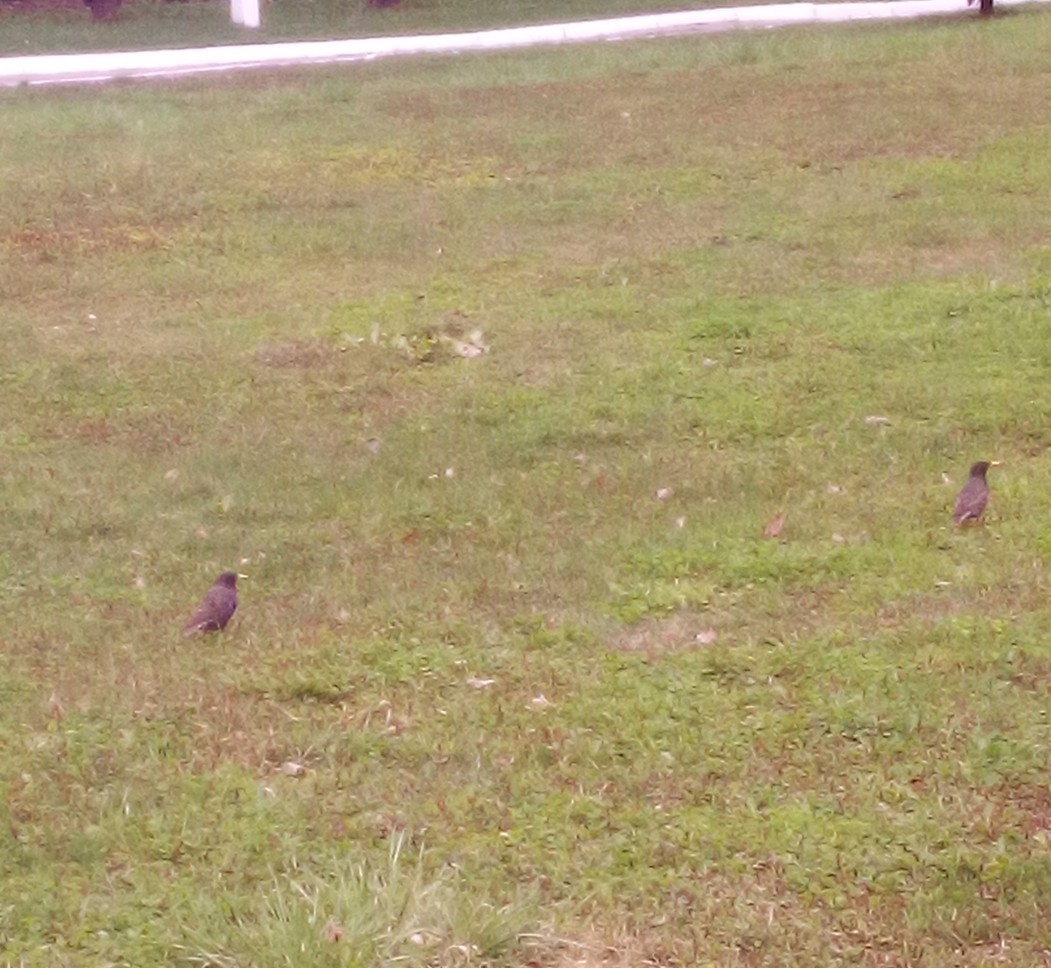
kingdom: Animalia
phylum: Chordata
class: Aves
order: Passeriformes
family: Sturnidae
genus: Sturnus
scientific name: Sturnus vulgaris
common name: Common starling
